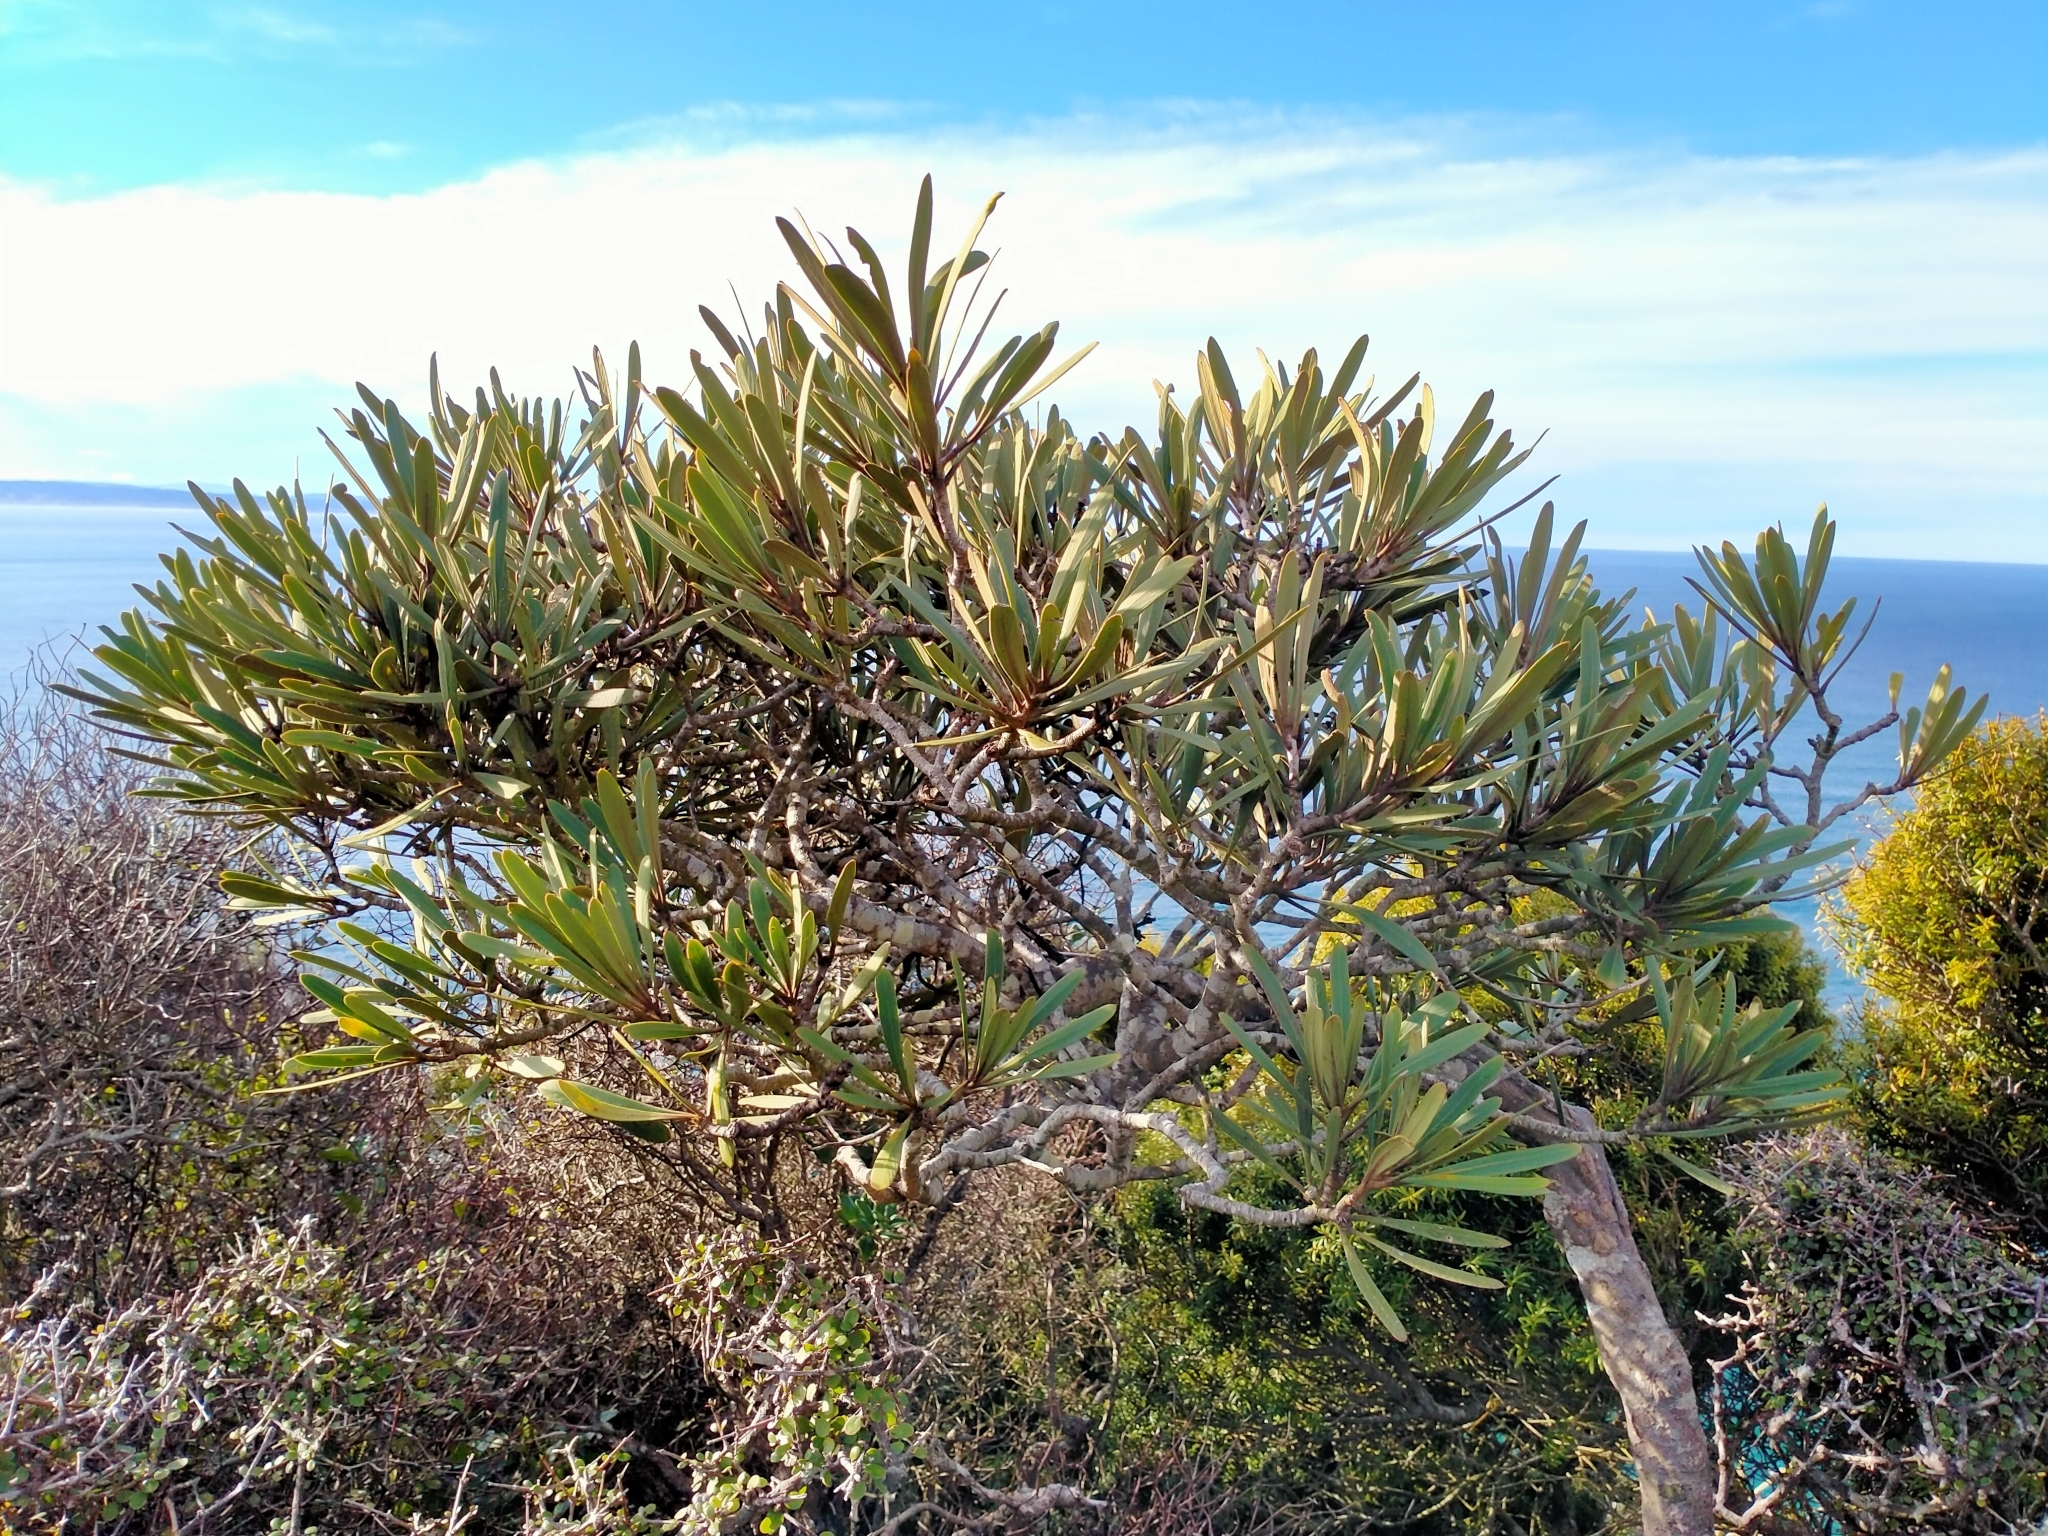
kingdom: Plantae
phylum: Tracheophyta
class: Magnoliopsida
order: Apiales
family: Araliaceae
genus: Pseudopanax
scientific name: Pseudopanax ferox
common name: Fierce lancewood
